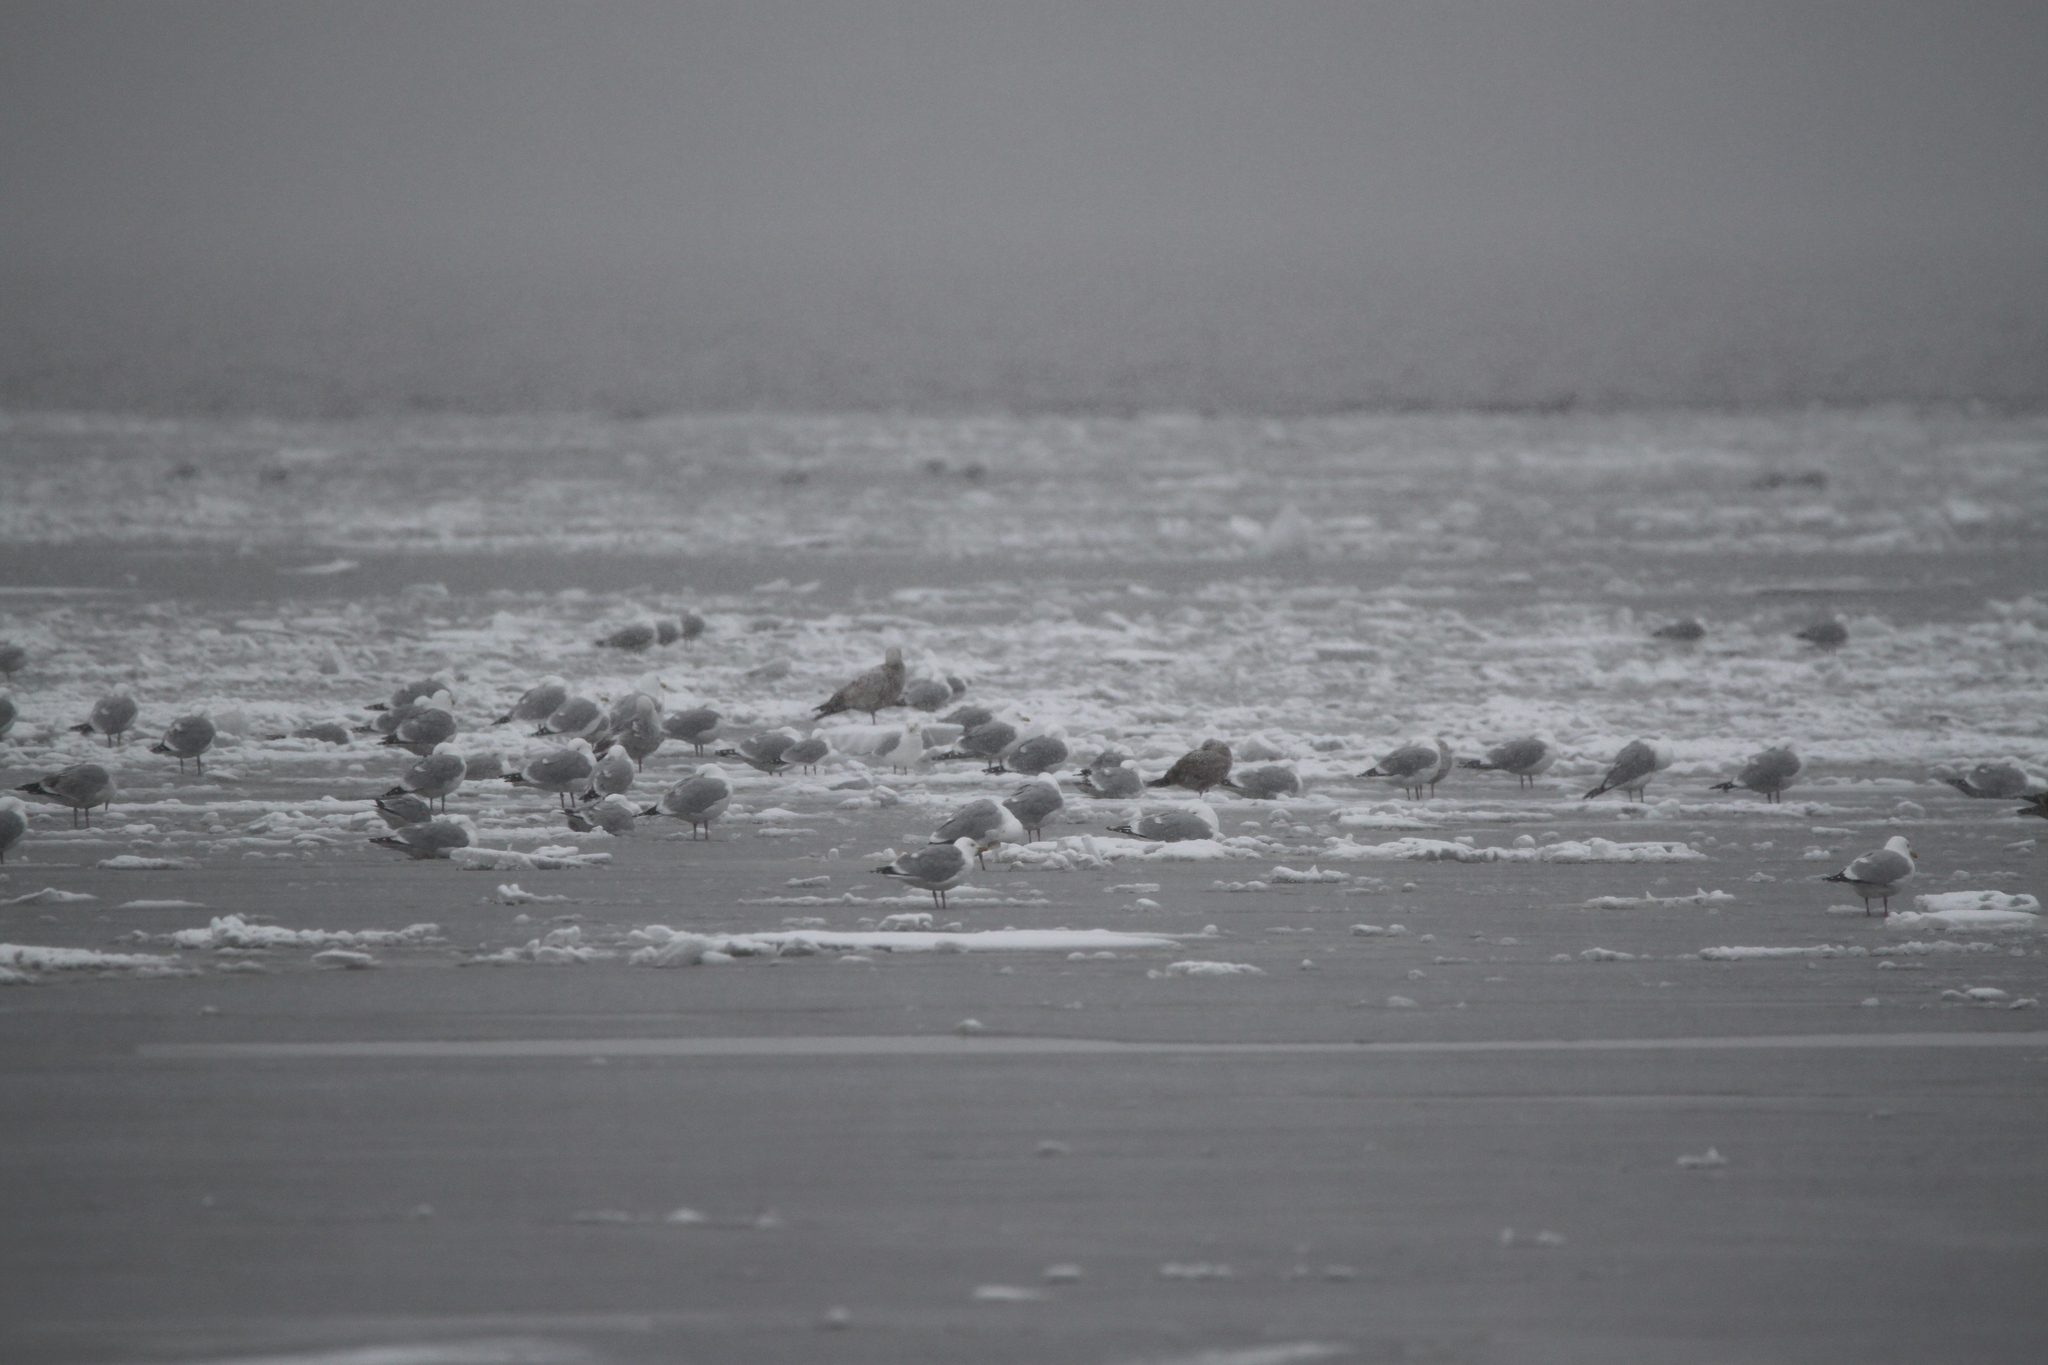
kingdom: Animalia
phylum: Chordata
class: Aves
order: Charadriiformes
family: Laridae
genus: Larus
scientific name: Larus delawarensis
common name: Ring-billed gull
